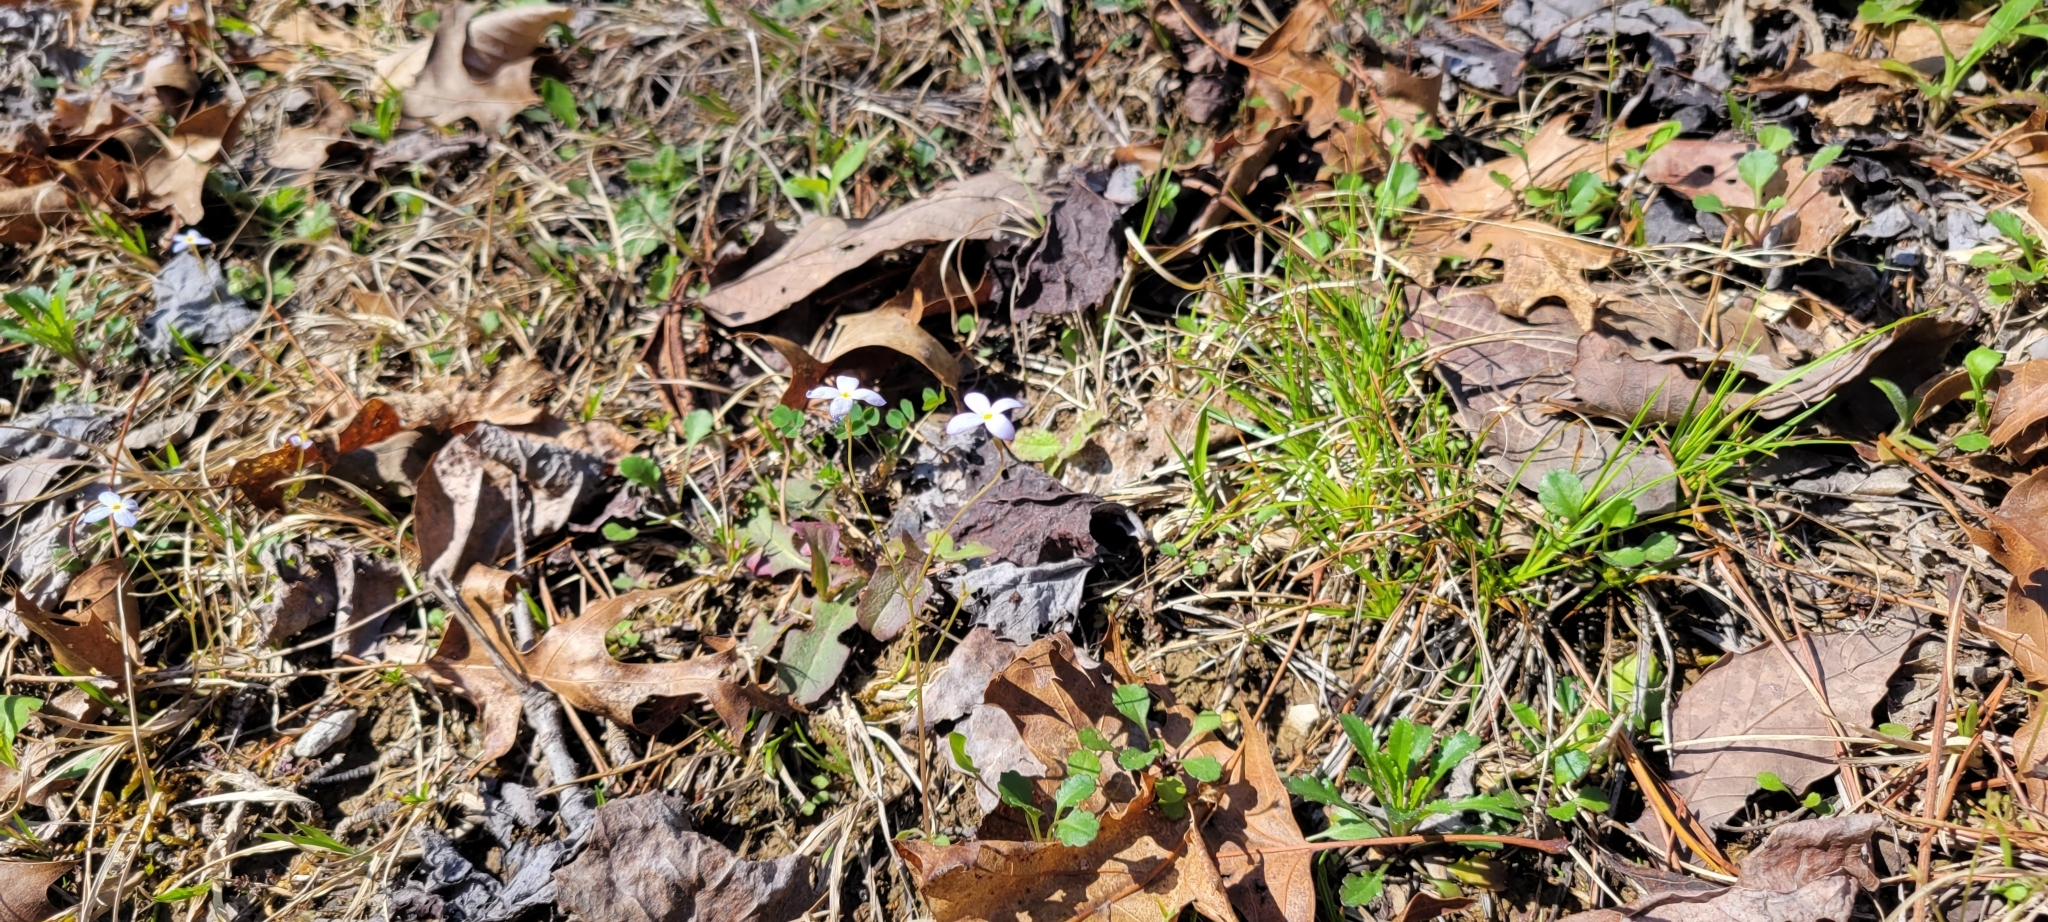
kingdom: Plantae
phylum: Tracheophyta
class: Magnoliopsida
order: Gentianales
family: Rubiaceae
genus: Houstonia
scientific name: Houstonia caerulea
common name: Bluets
